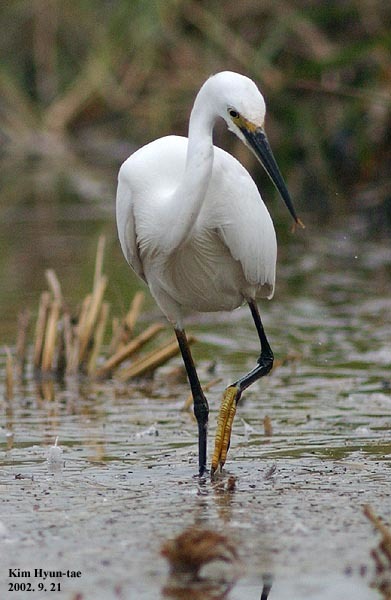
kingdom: Animalia
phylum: Chordata
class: Aves
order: Pelecaniformes
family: Ardeidae
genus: Egretta
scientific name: Egretta garzetta
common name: Little egret
